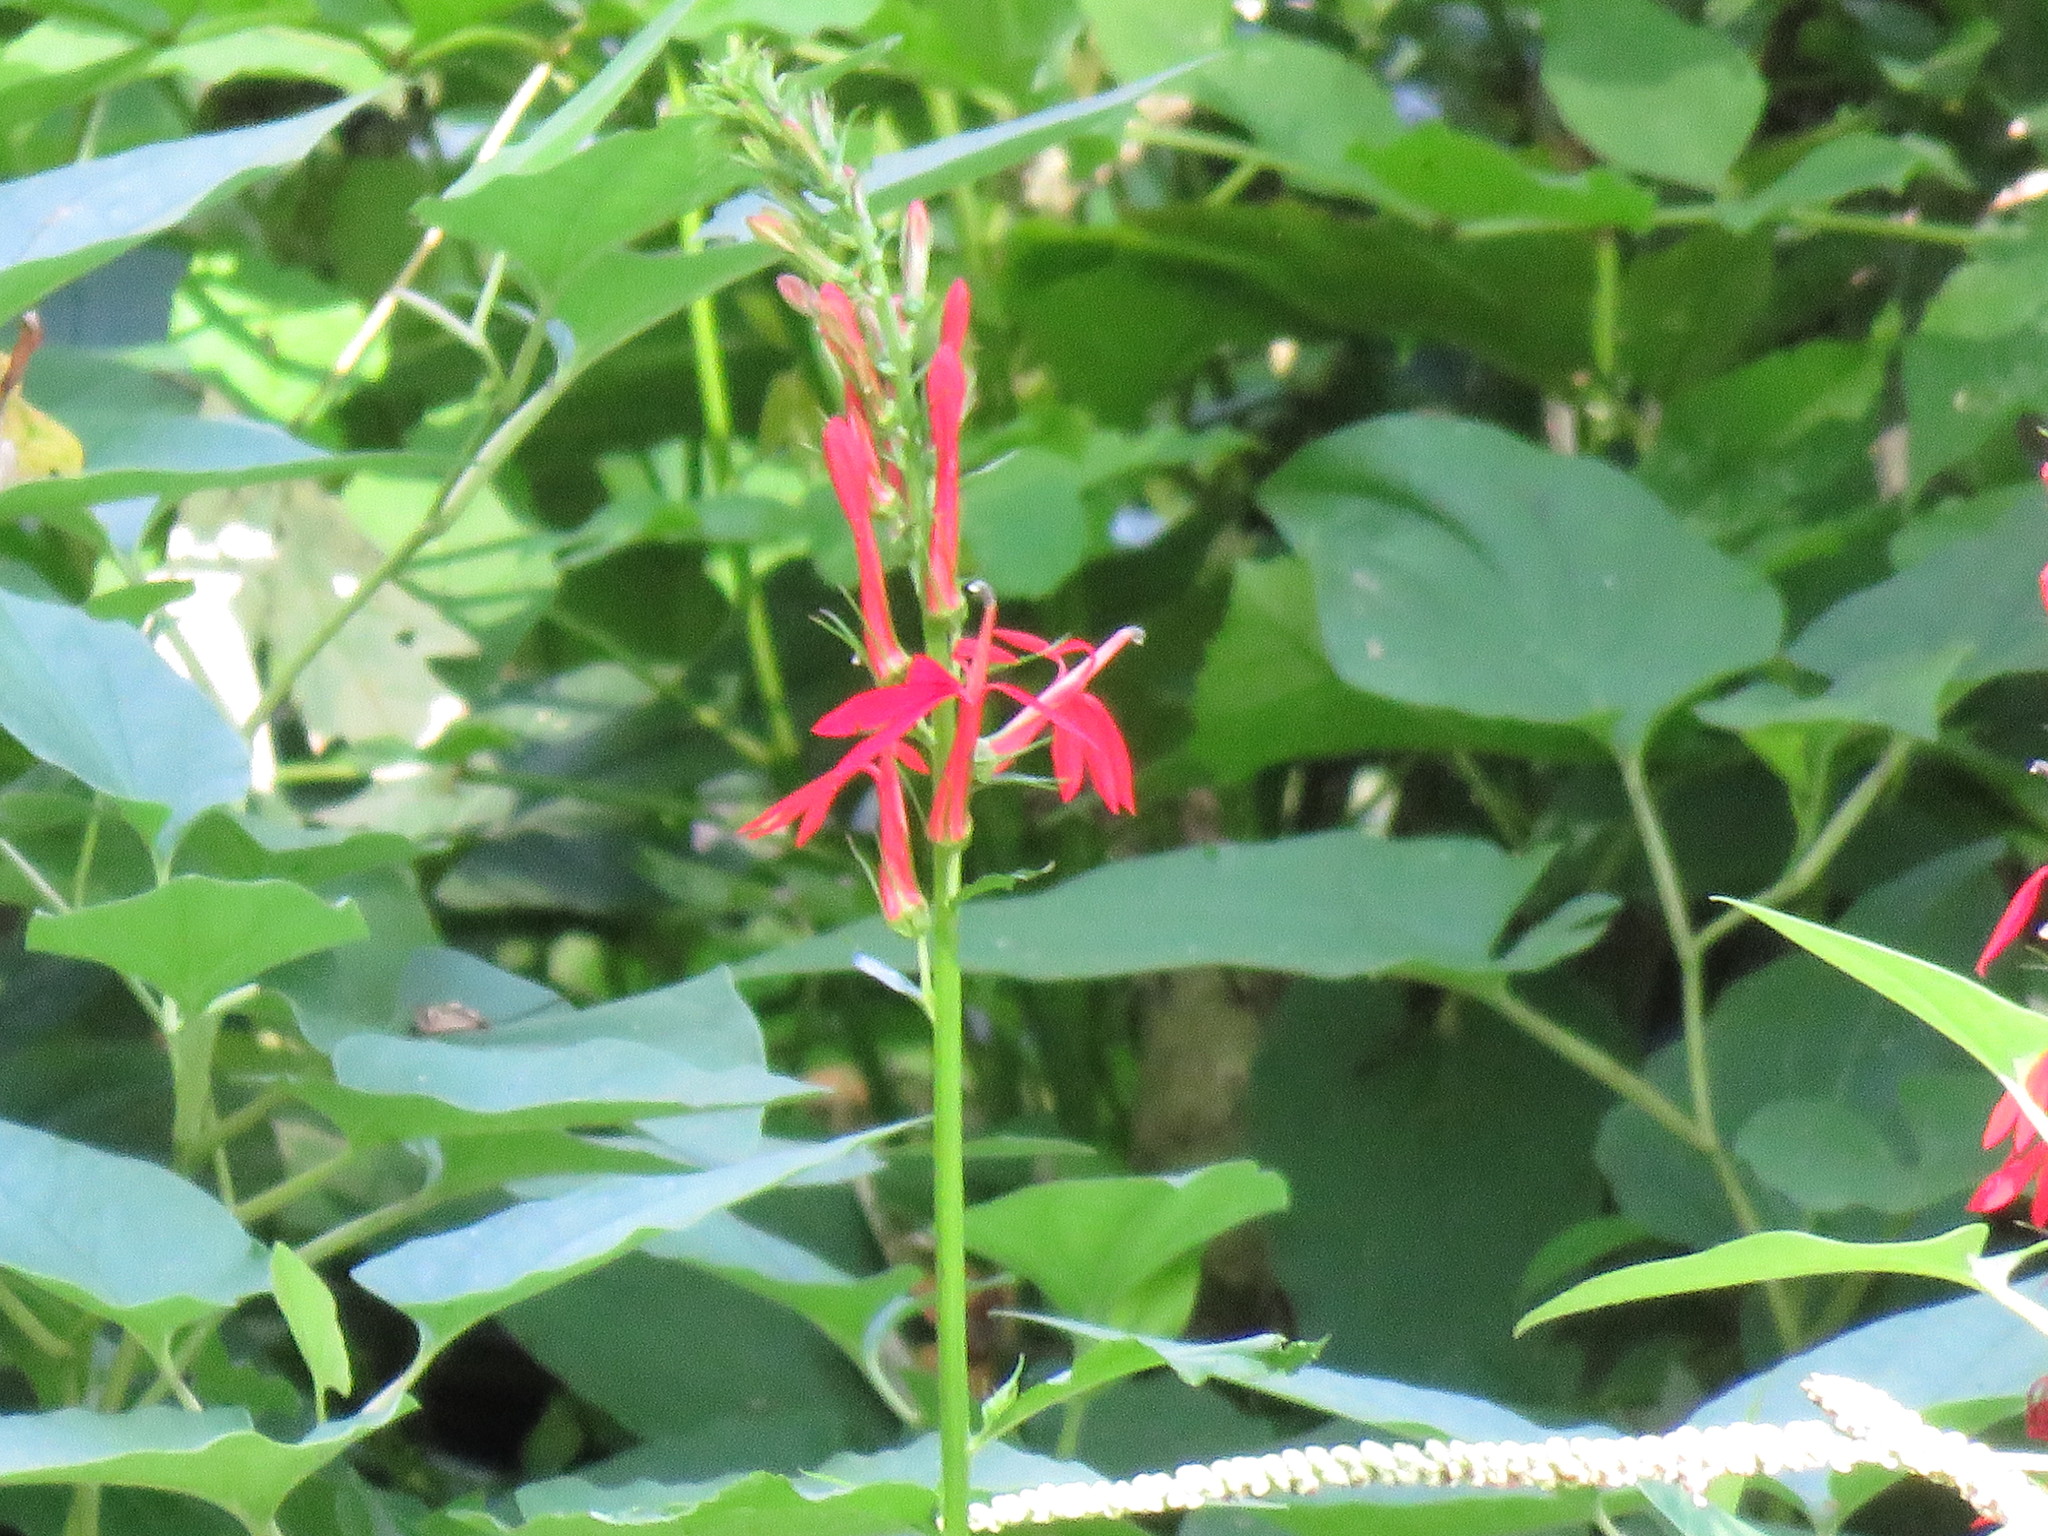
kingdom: Plantae
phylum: Tracheophyta
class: Magnoliopsida
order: Asterales
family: Campanulaceae
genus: Lobelia
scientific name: Lobelia cardinalis
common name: Cardinal flower
